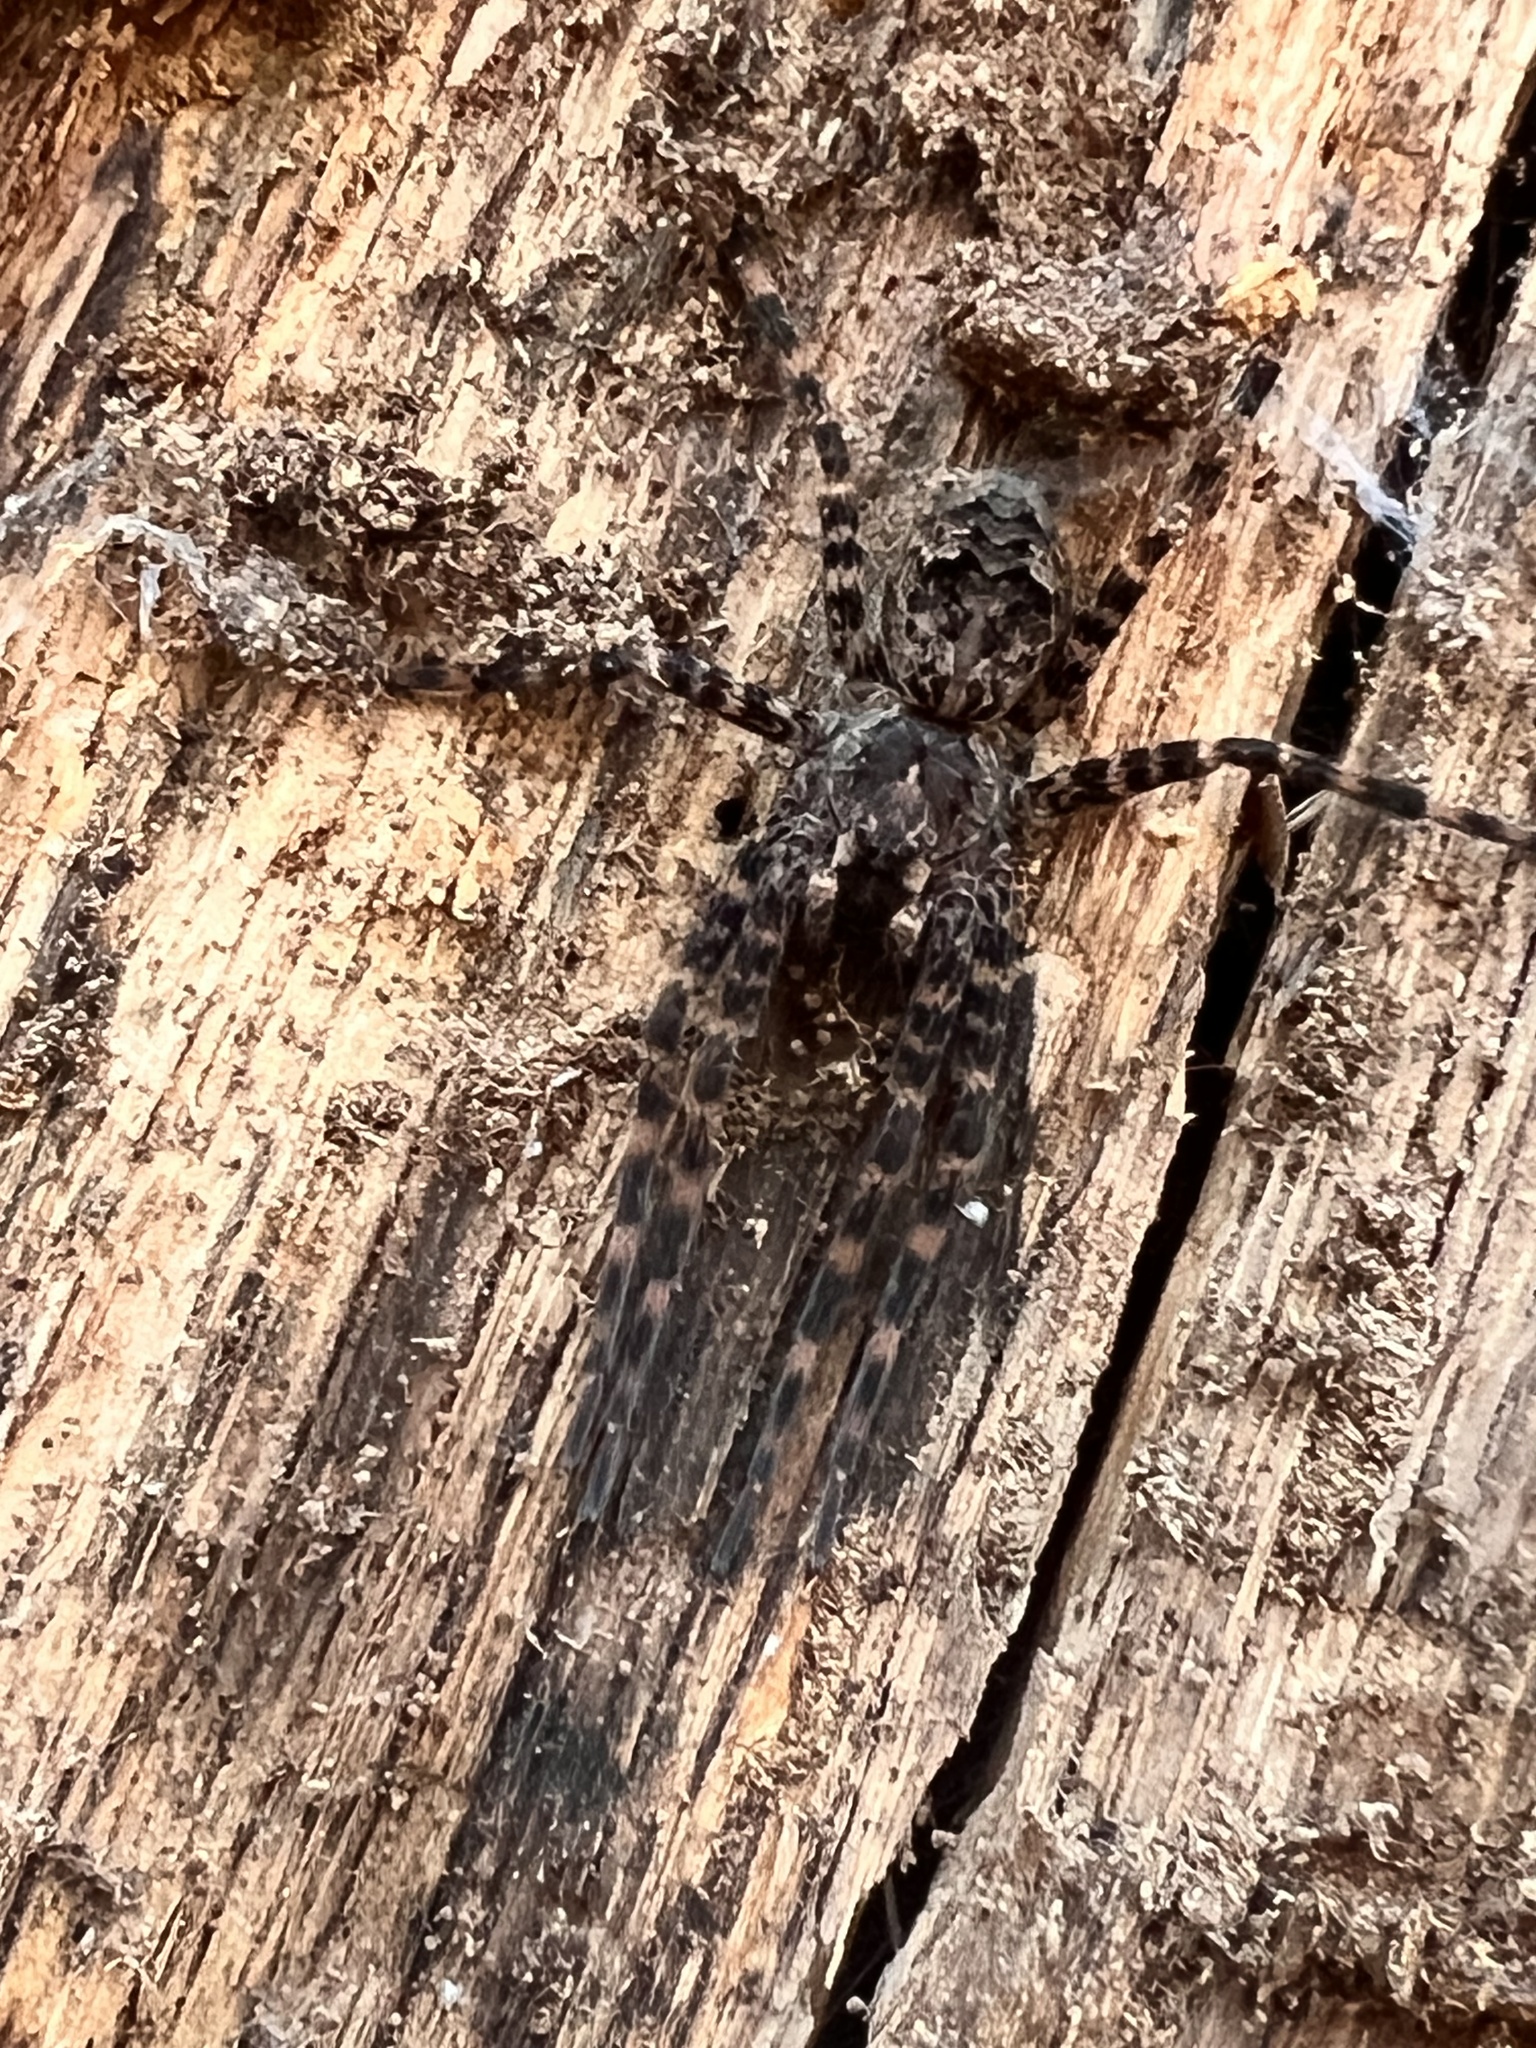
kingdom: Animalia
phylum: Arthropoda
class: Arachnida
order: Araneae
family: Pisauridae
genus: Dolomedes
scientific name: Dolomedes tenebrosus
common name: Dark fishing spider
